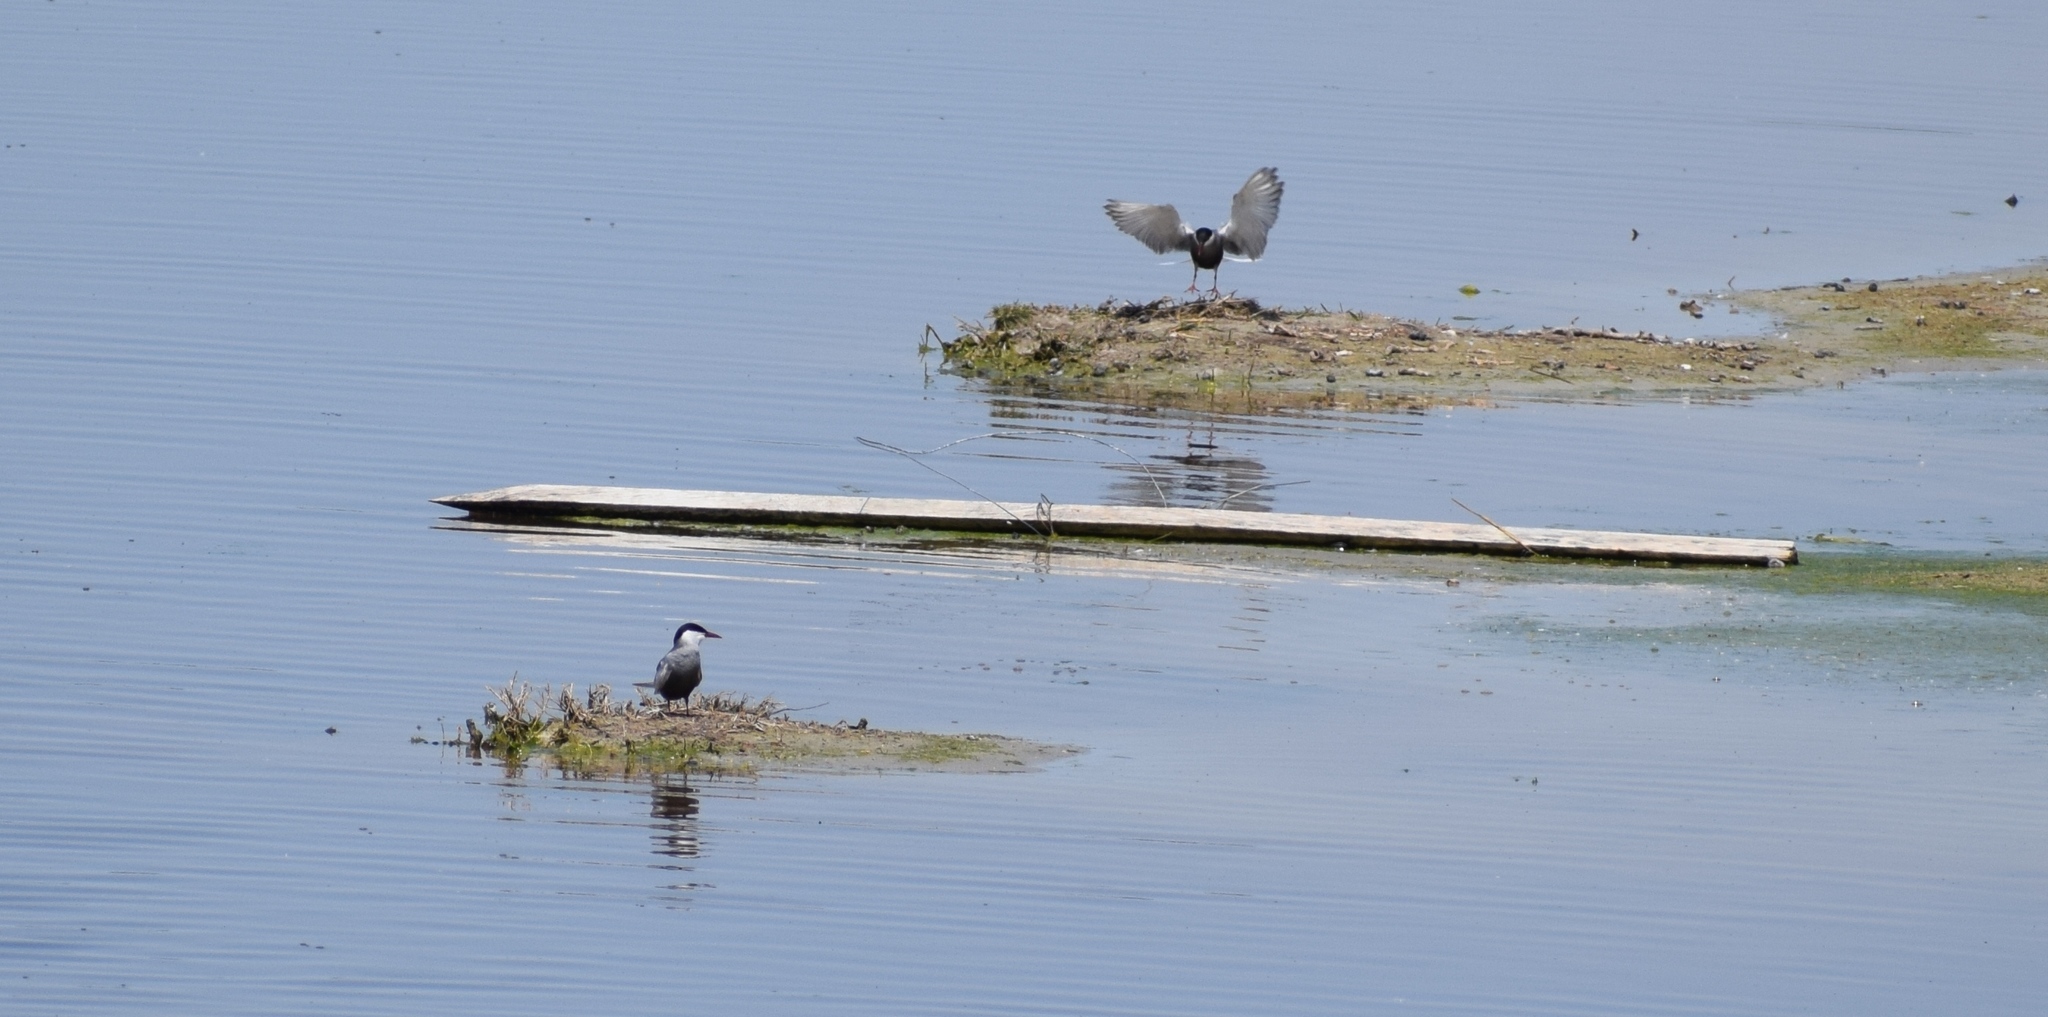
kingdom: Animalia
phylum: Chordata
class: Aves
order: Charadriiformes
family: Laridae
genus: Chlidonias
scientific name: Chlidonias hybrida
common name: Whiskered tern
